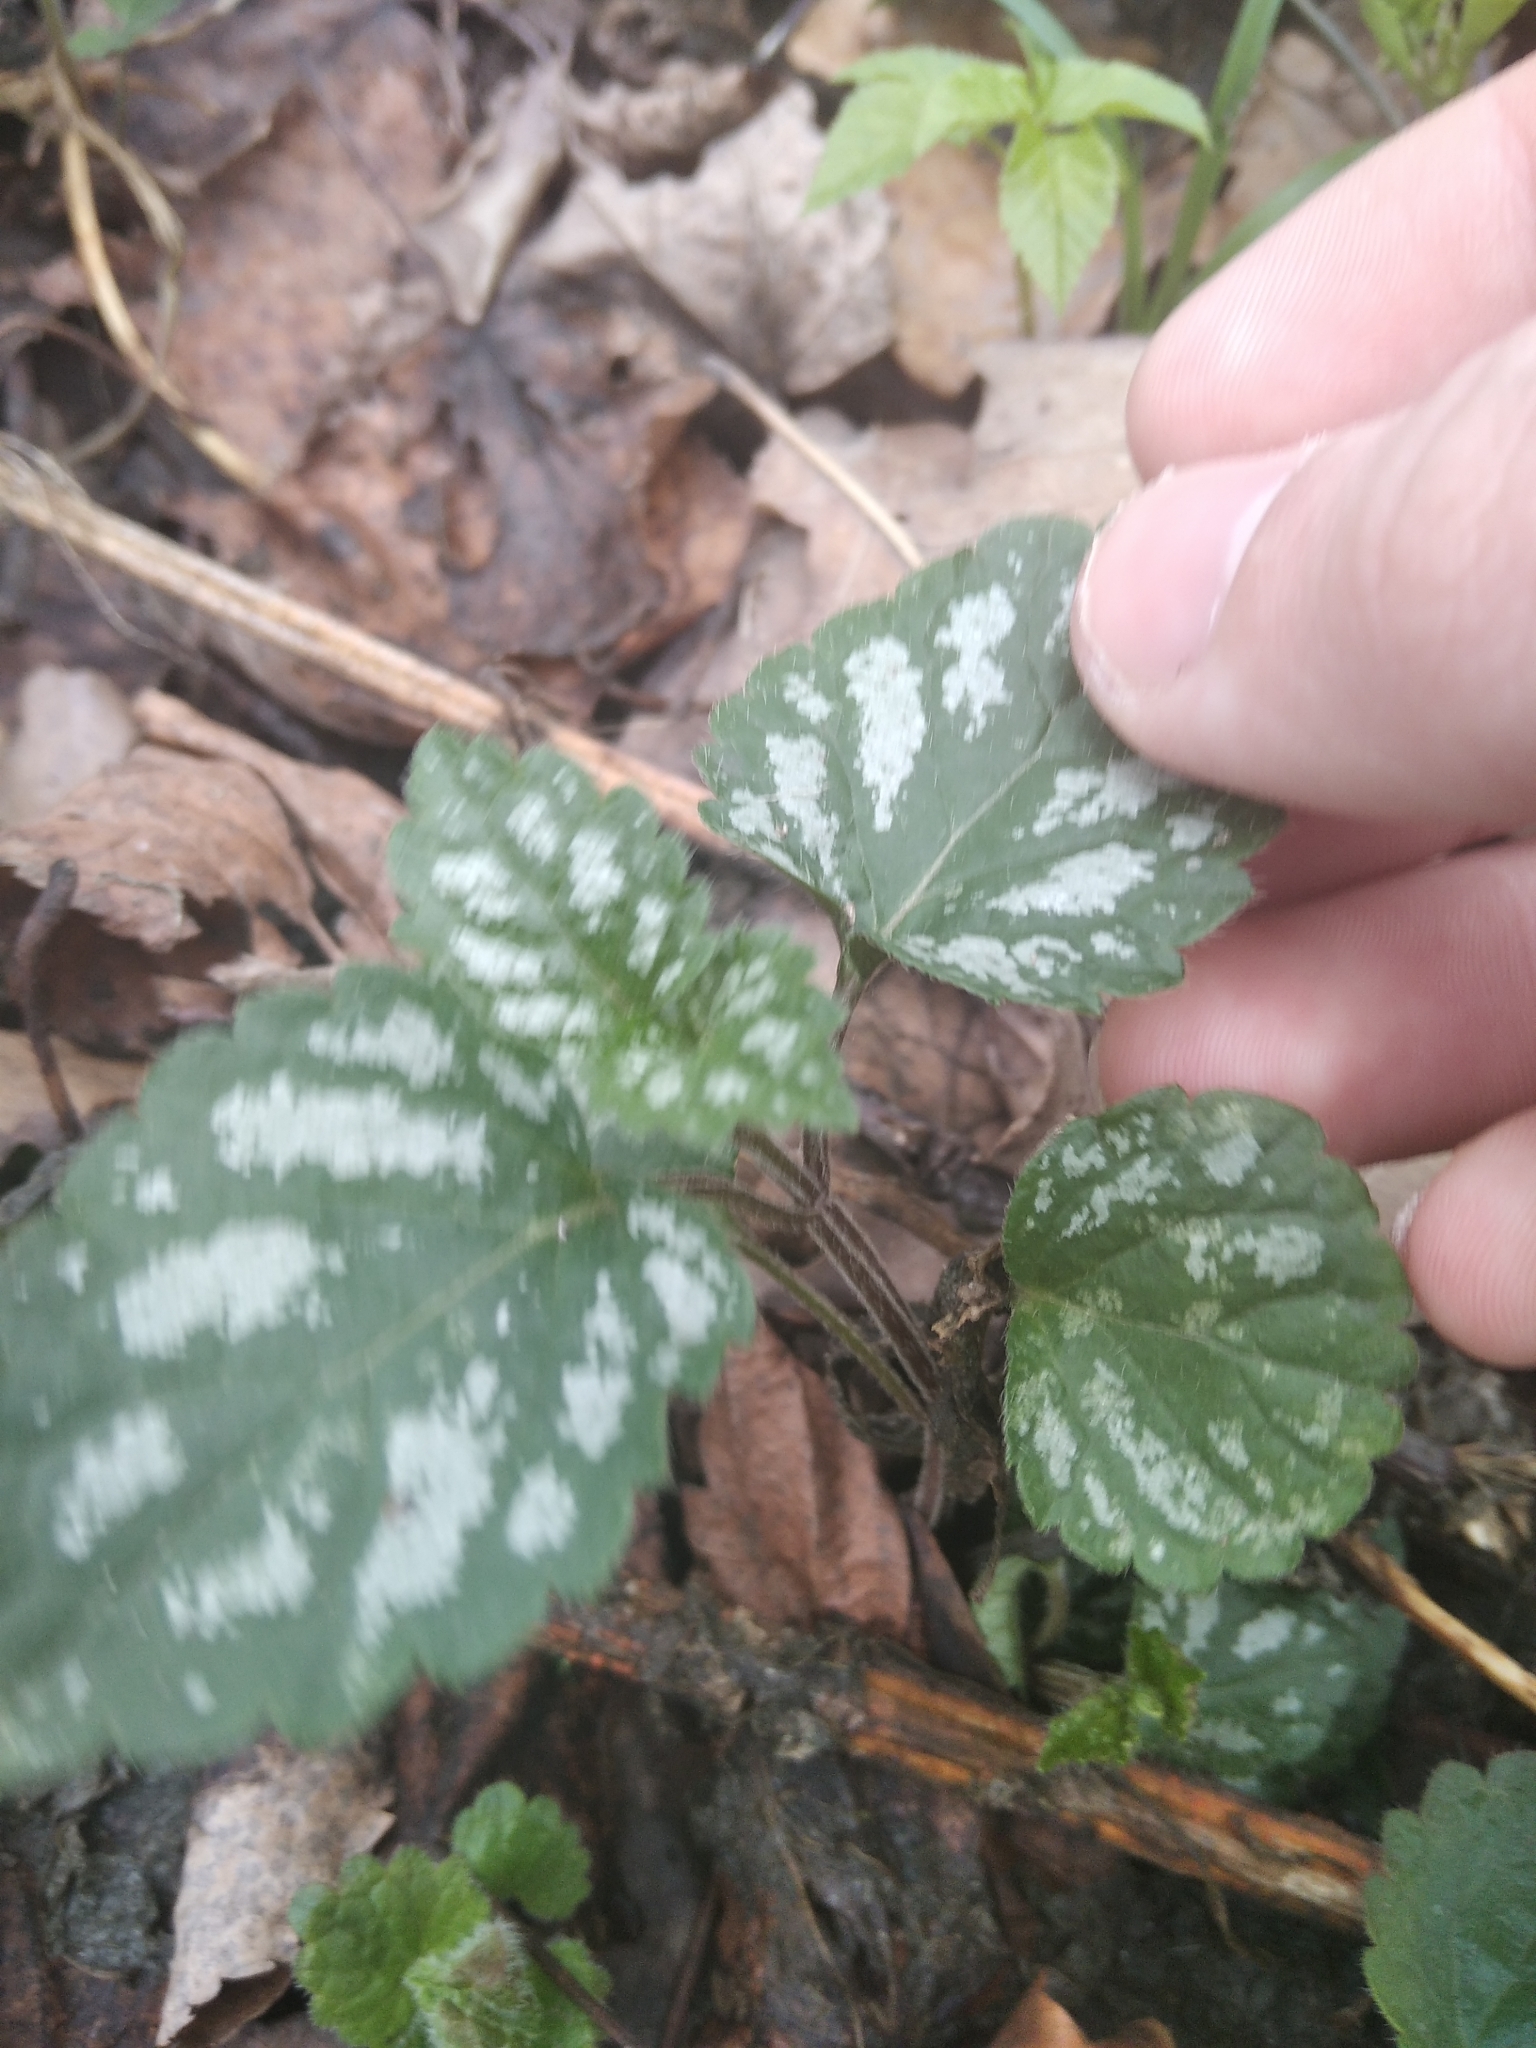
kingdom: Plantae
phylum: Tracheophyta
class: Magnoliopsida
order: Lamiales
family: Lamiaceae
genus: Lamium
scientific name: Lamium galeobdolon
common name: Yellow archangel
